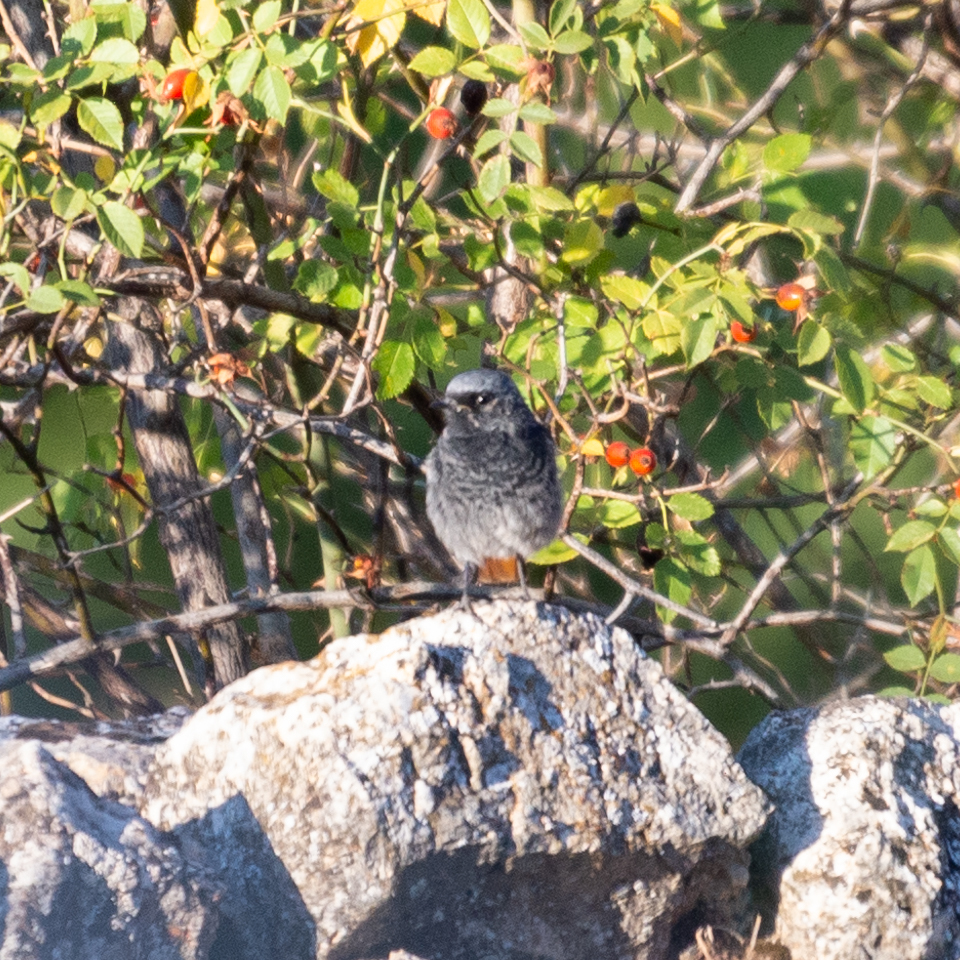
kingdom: Animalia
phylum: Chordata
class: Aves
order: Passeriformes
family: Muscicapidae
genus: Phoenicurus
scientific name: Phoenicurus ochruros
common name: Black redstart
